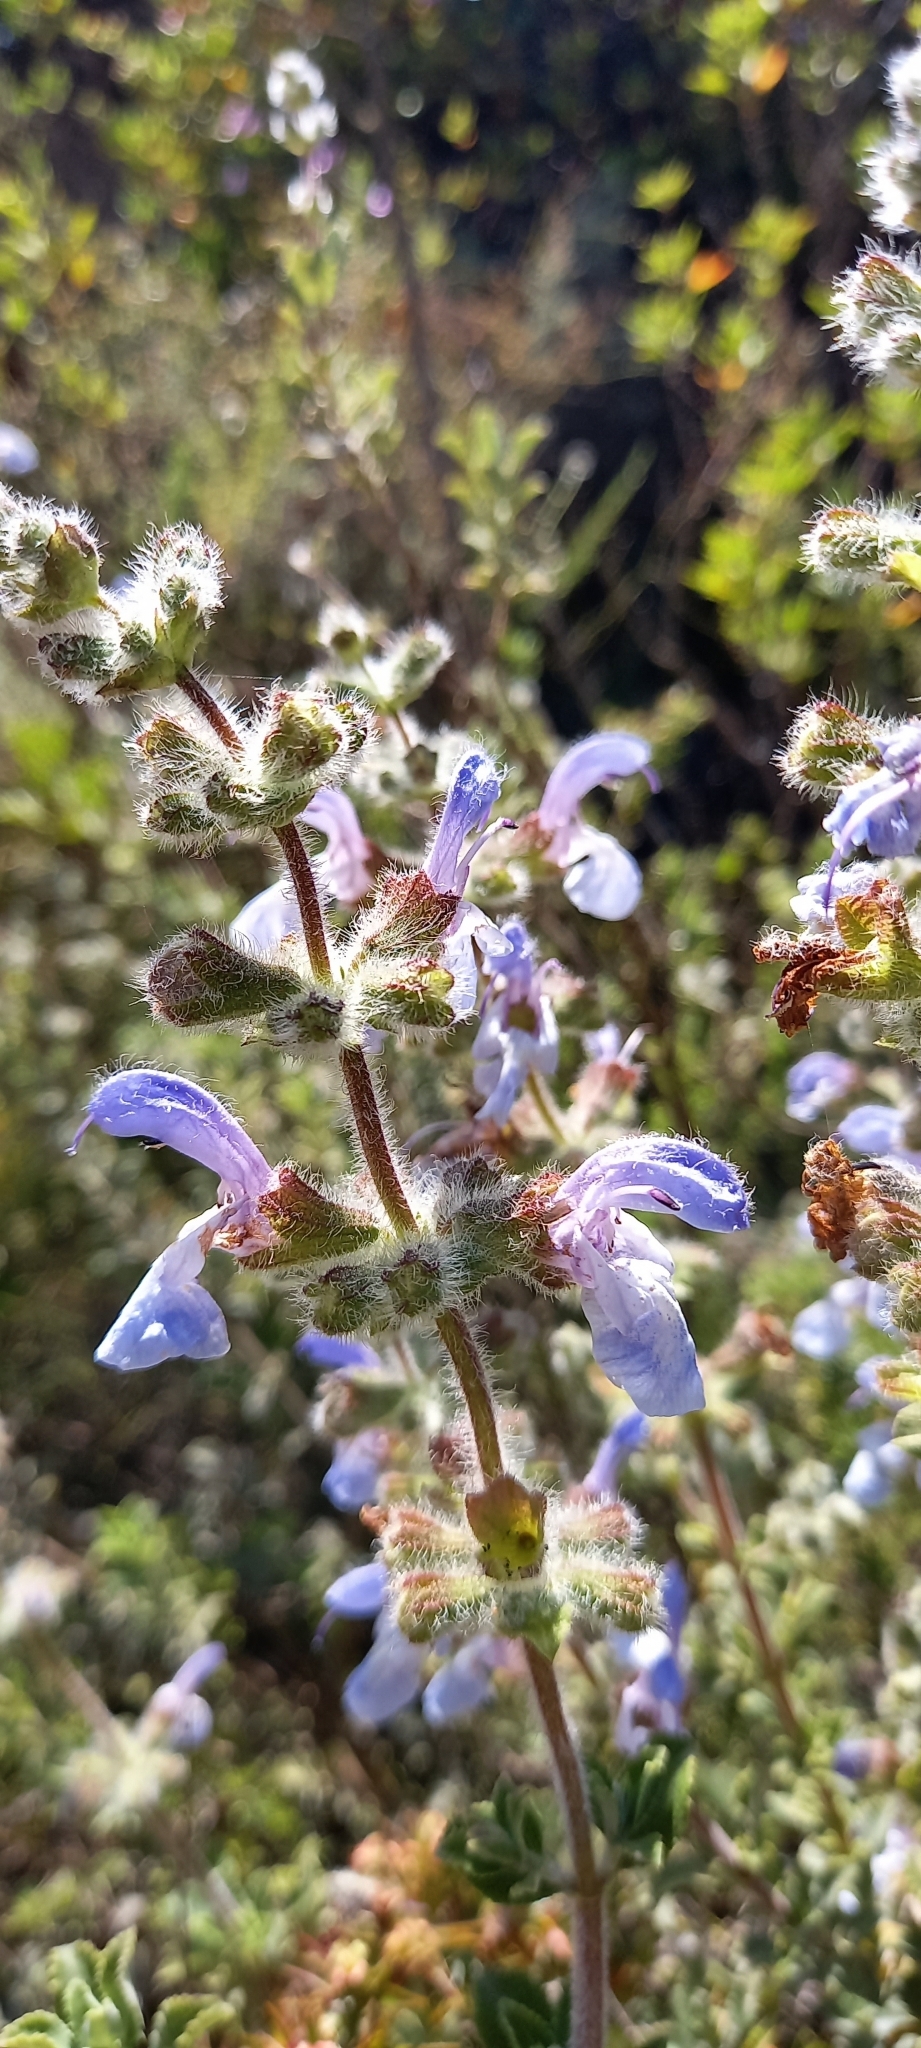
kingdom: Plantae
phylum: Tracheophyta
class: Magnoliopsida
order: Lamiales
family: Lamiaceae
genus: Salvia
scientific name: Salvia africana
